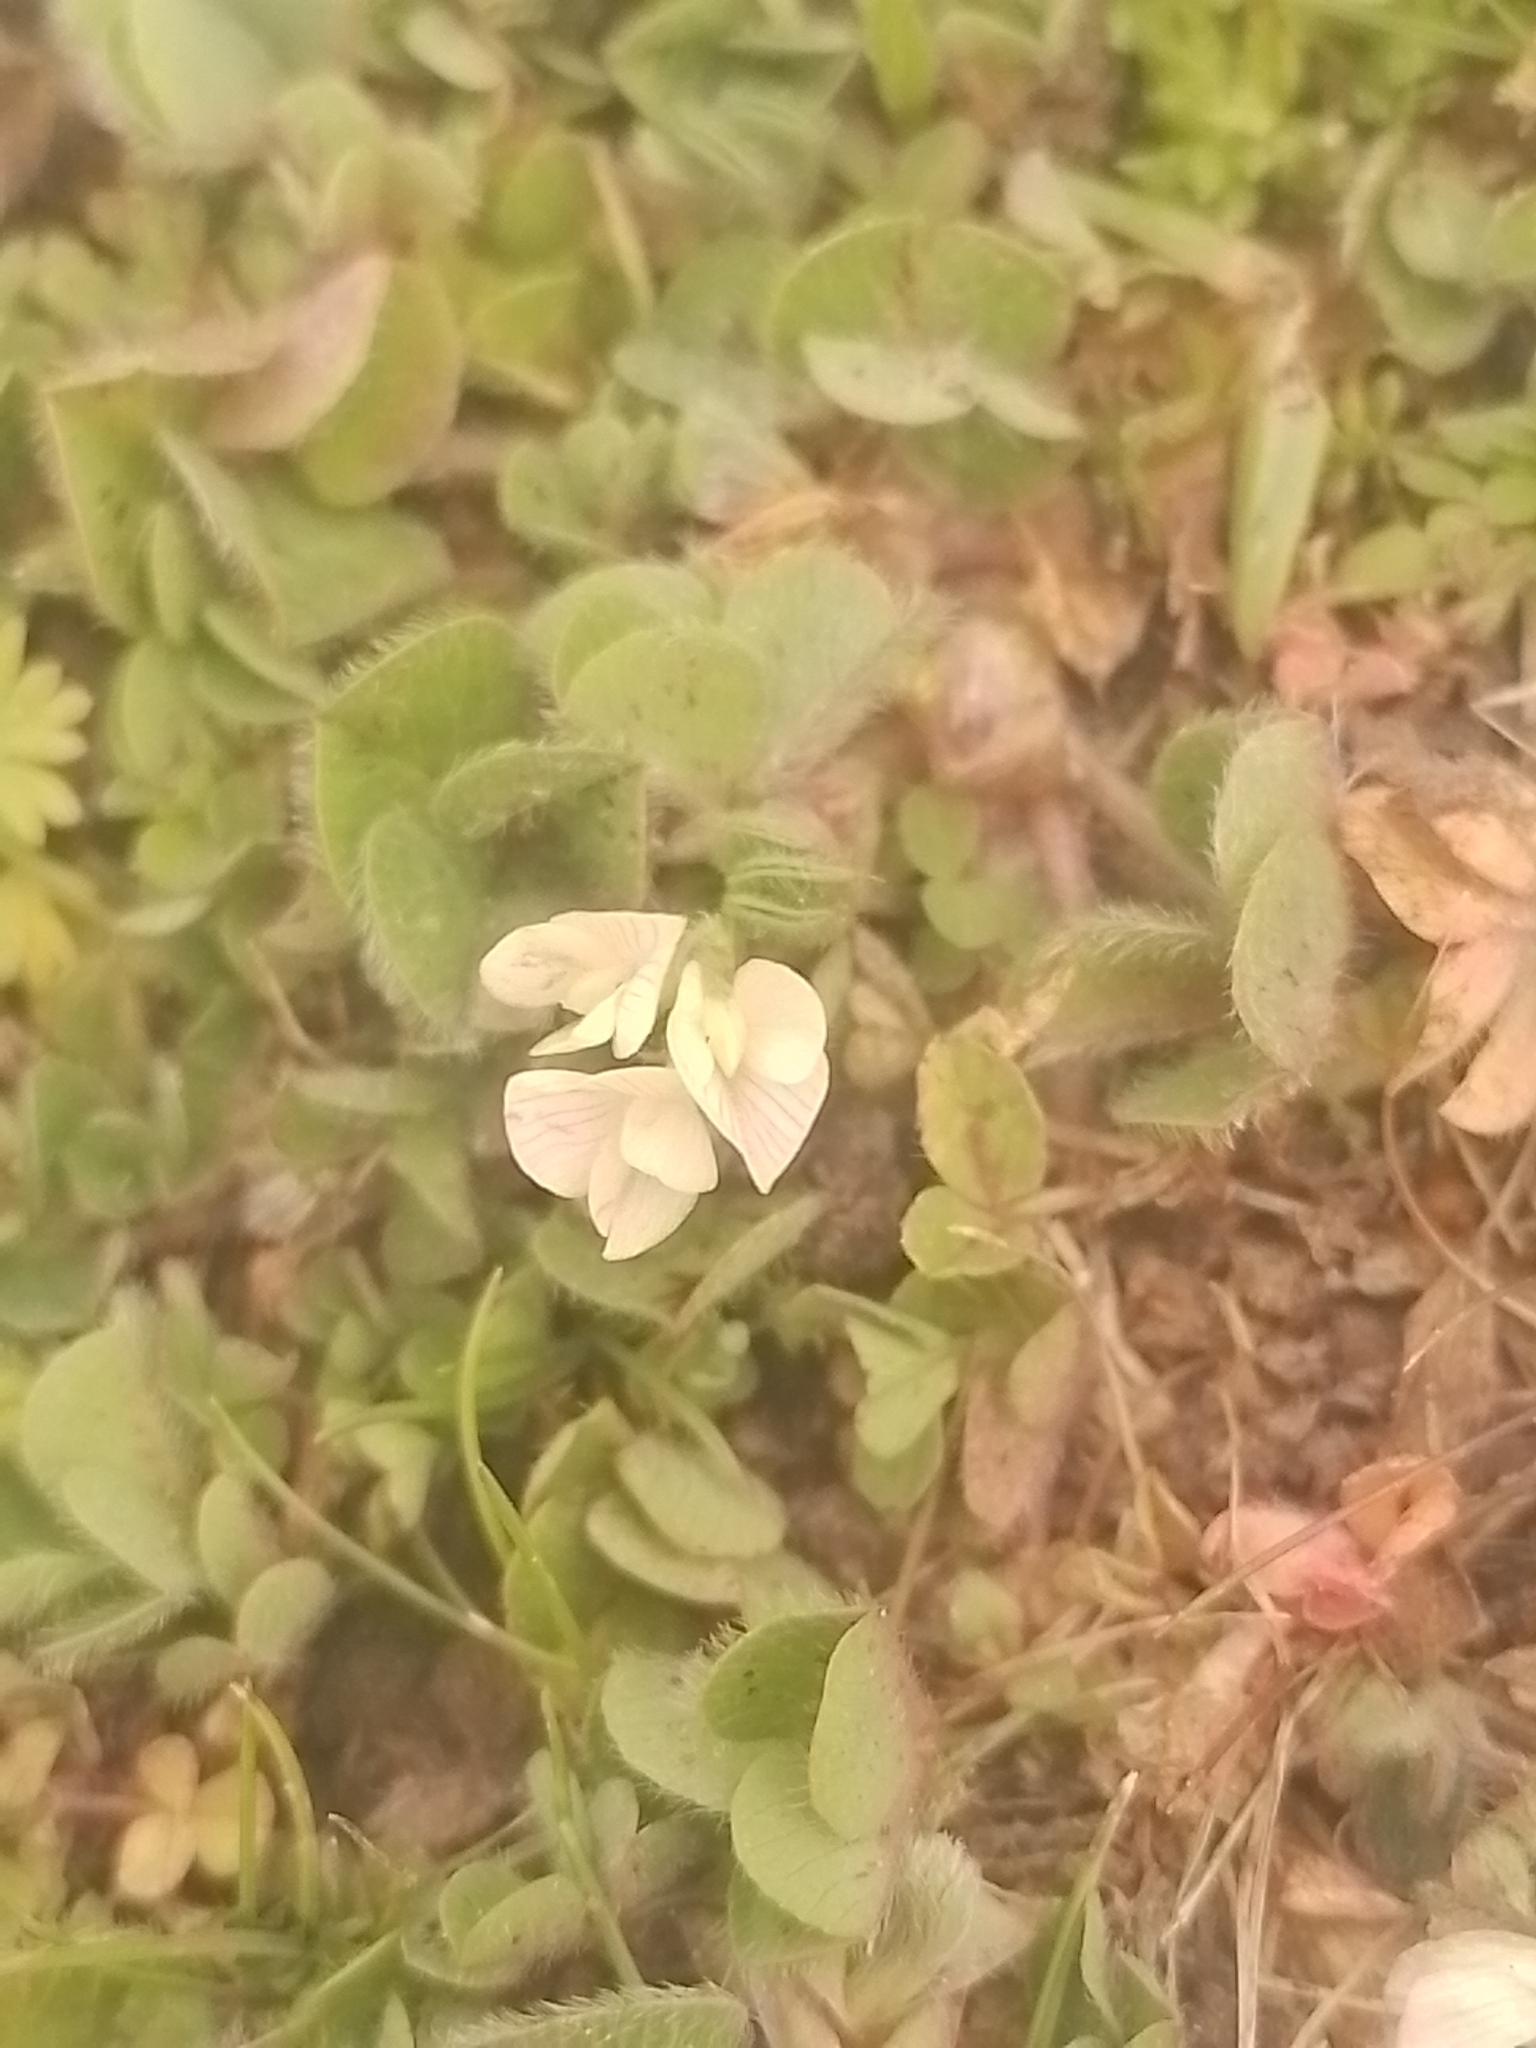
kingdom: Plantae
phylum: Tracheophyta
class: Magnoliopsida
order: Fabales
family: Fabaceae
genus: Trifolium
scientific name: Trifolium subterraneum
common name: Subterranean clover
